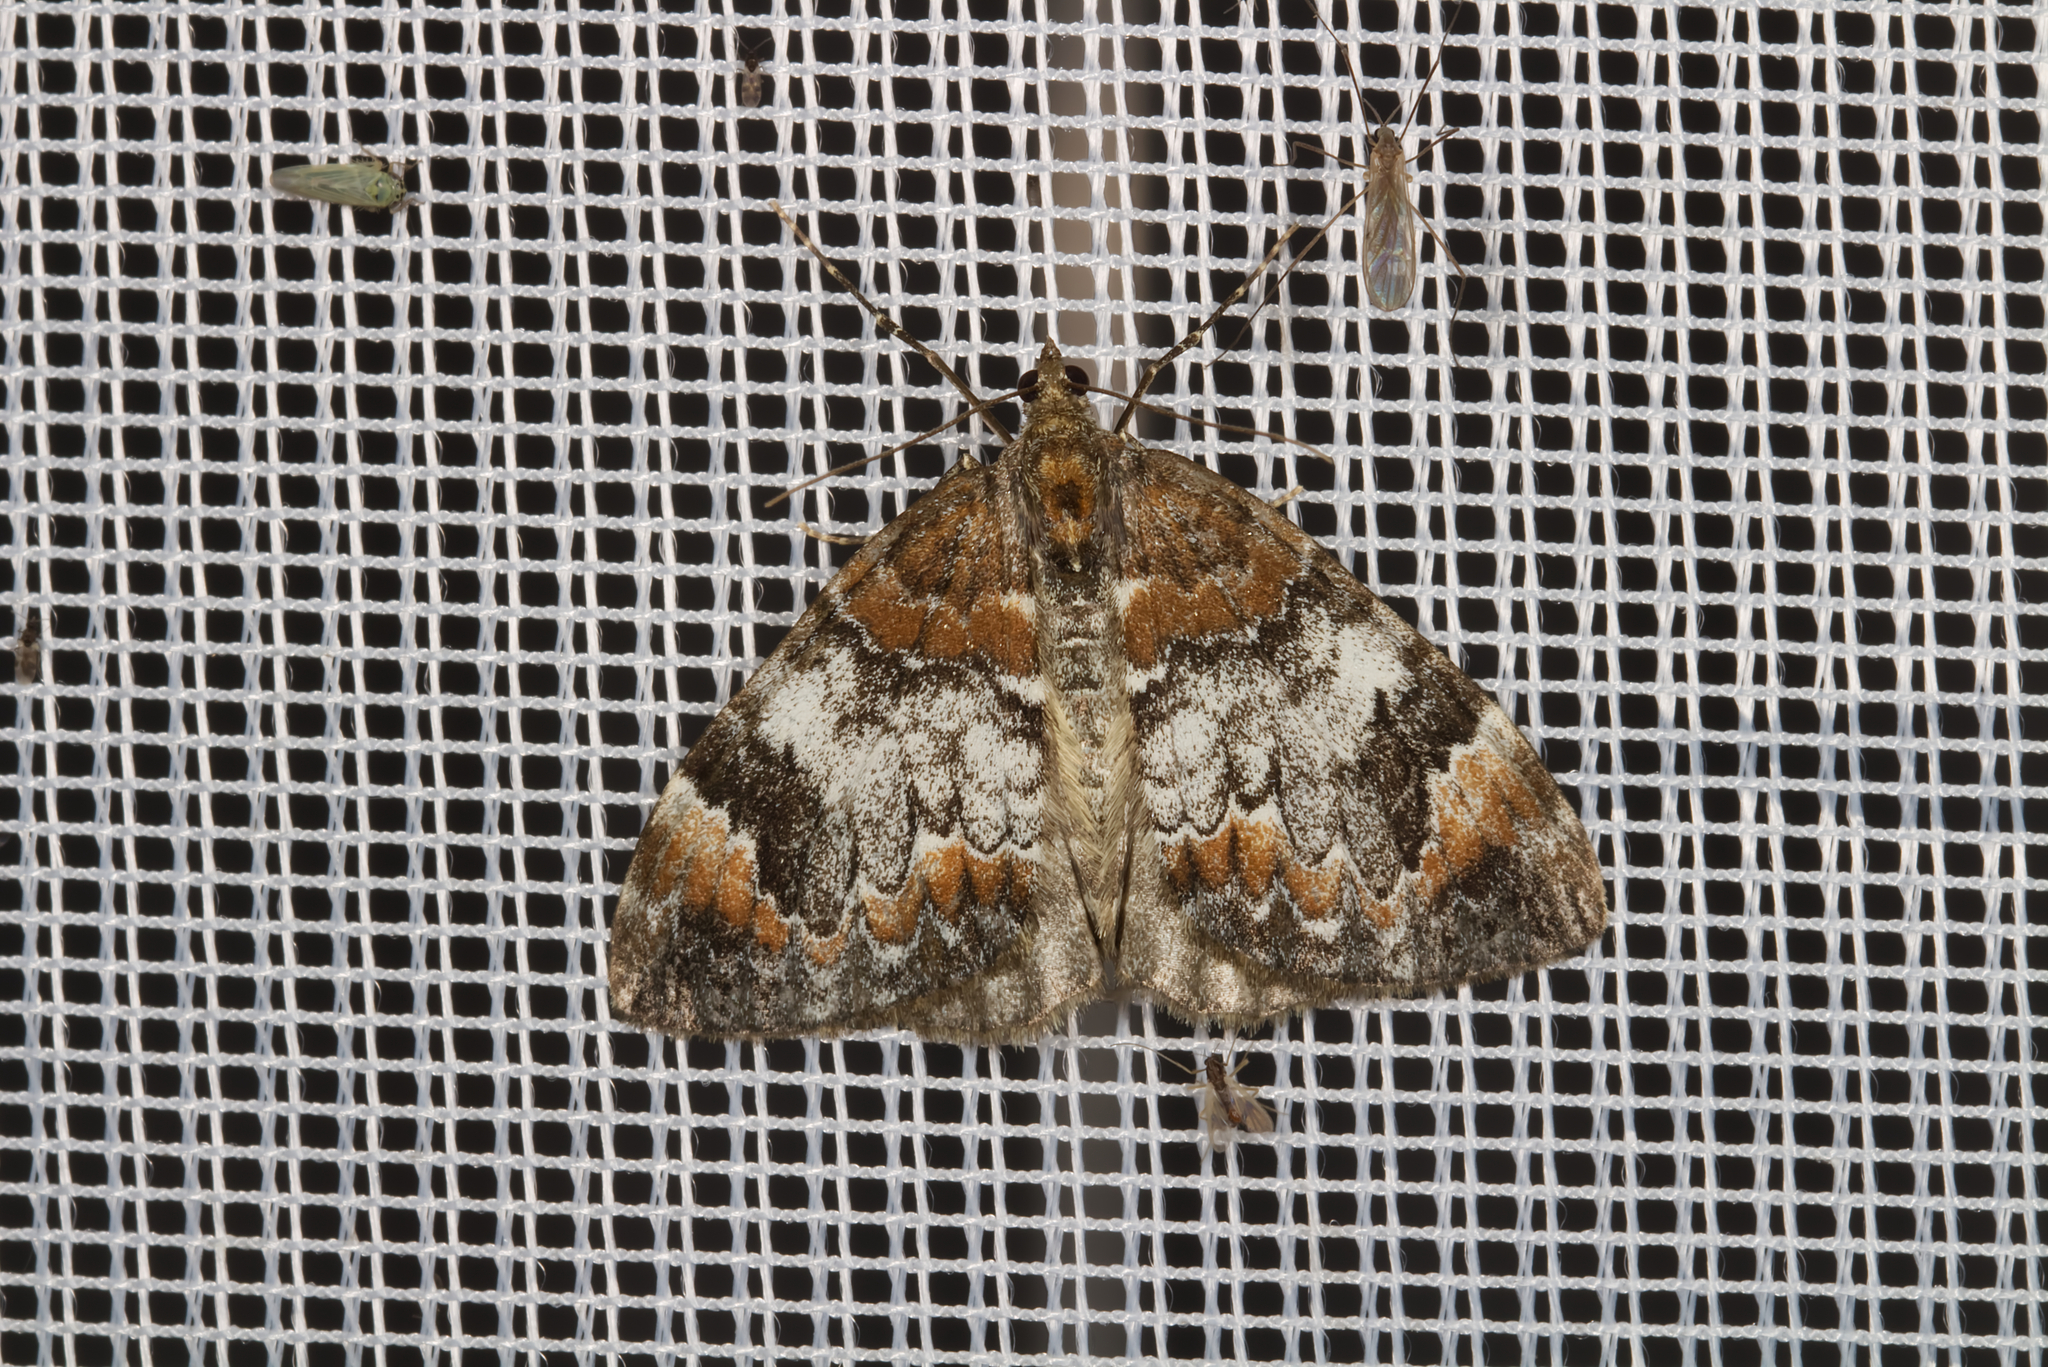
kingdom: Animalia
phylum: Arthropoda
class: Insecta
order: Lepidoptera
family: Geometridae
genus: Dysstroma
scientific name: Dysstroma truncata
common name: Common marbled carpet
